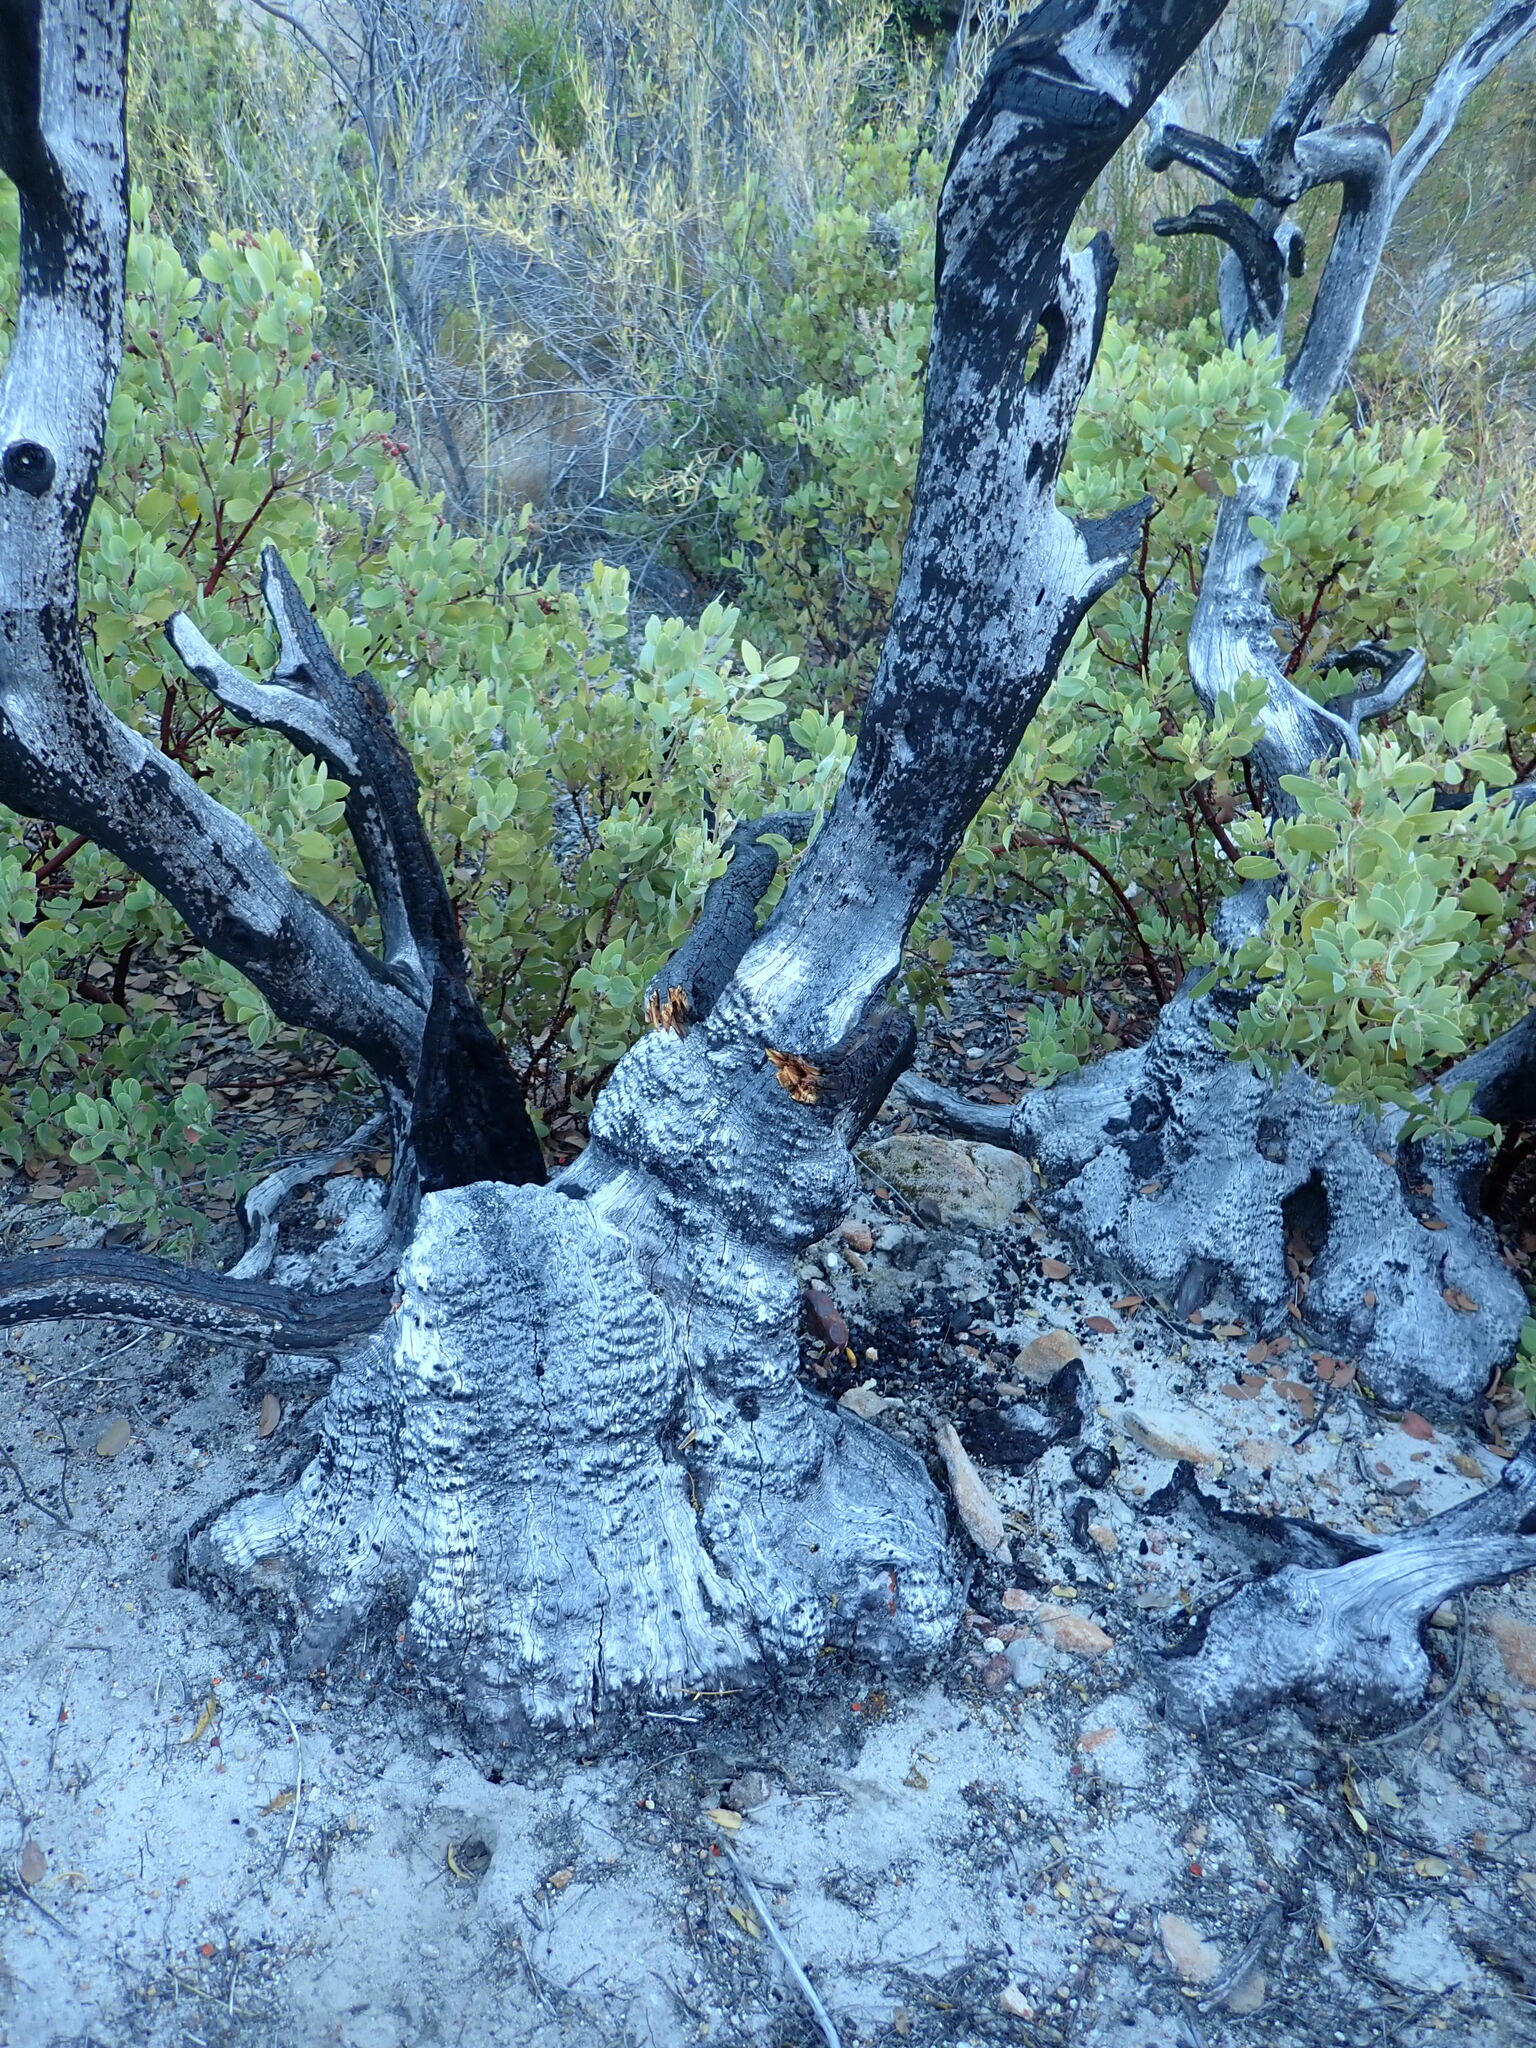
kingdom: Plantae
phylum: Tracheophyta
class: Magnoliopsida
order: Ericales
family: Ericaceae
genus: Arctostaphylos
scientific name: Arctostaphylos glandulosa
